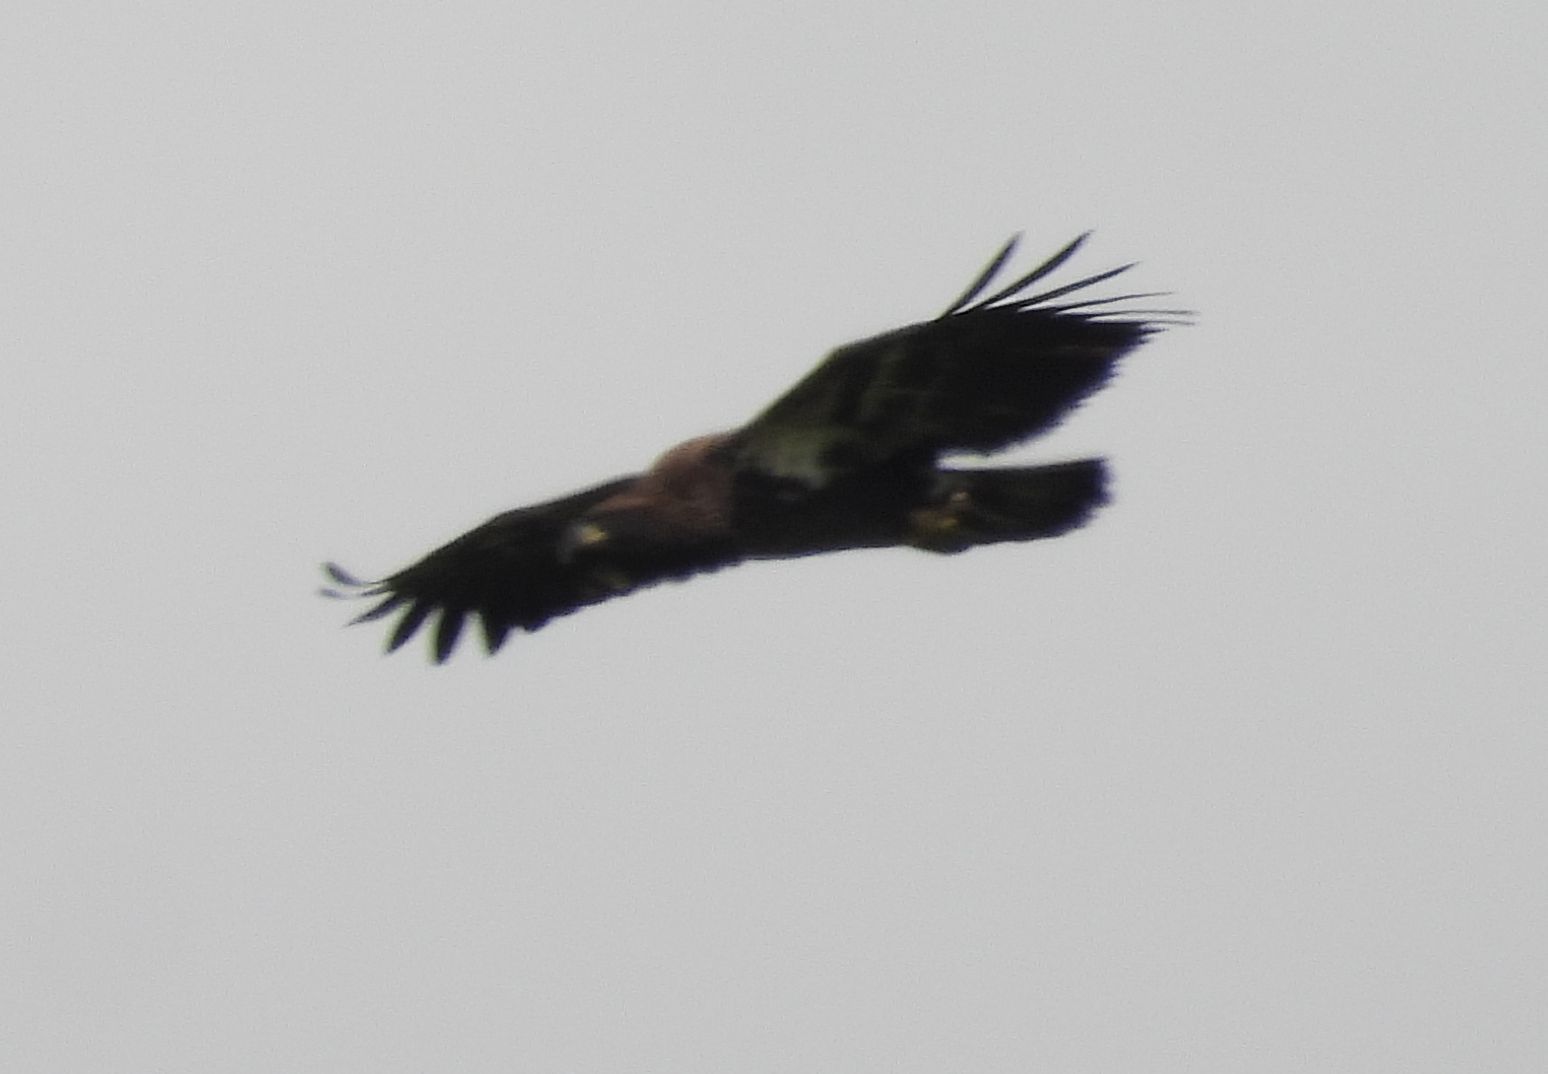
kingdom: Animalia
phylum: Chordata
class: Aves
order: Accipitriformes
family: Accipitridae
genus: Haliaeetus
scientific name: Haliaeetus leucocephalus
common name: Bald eagle
